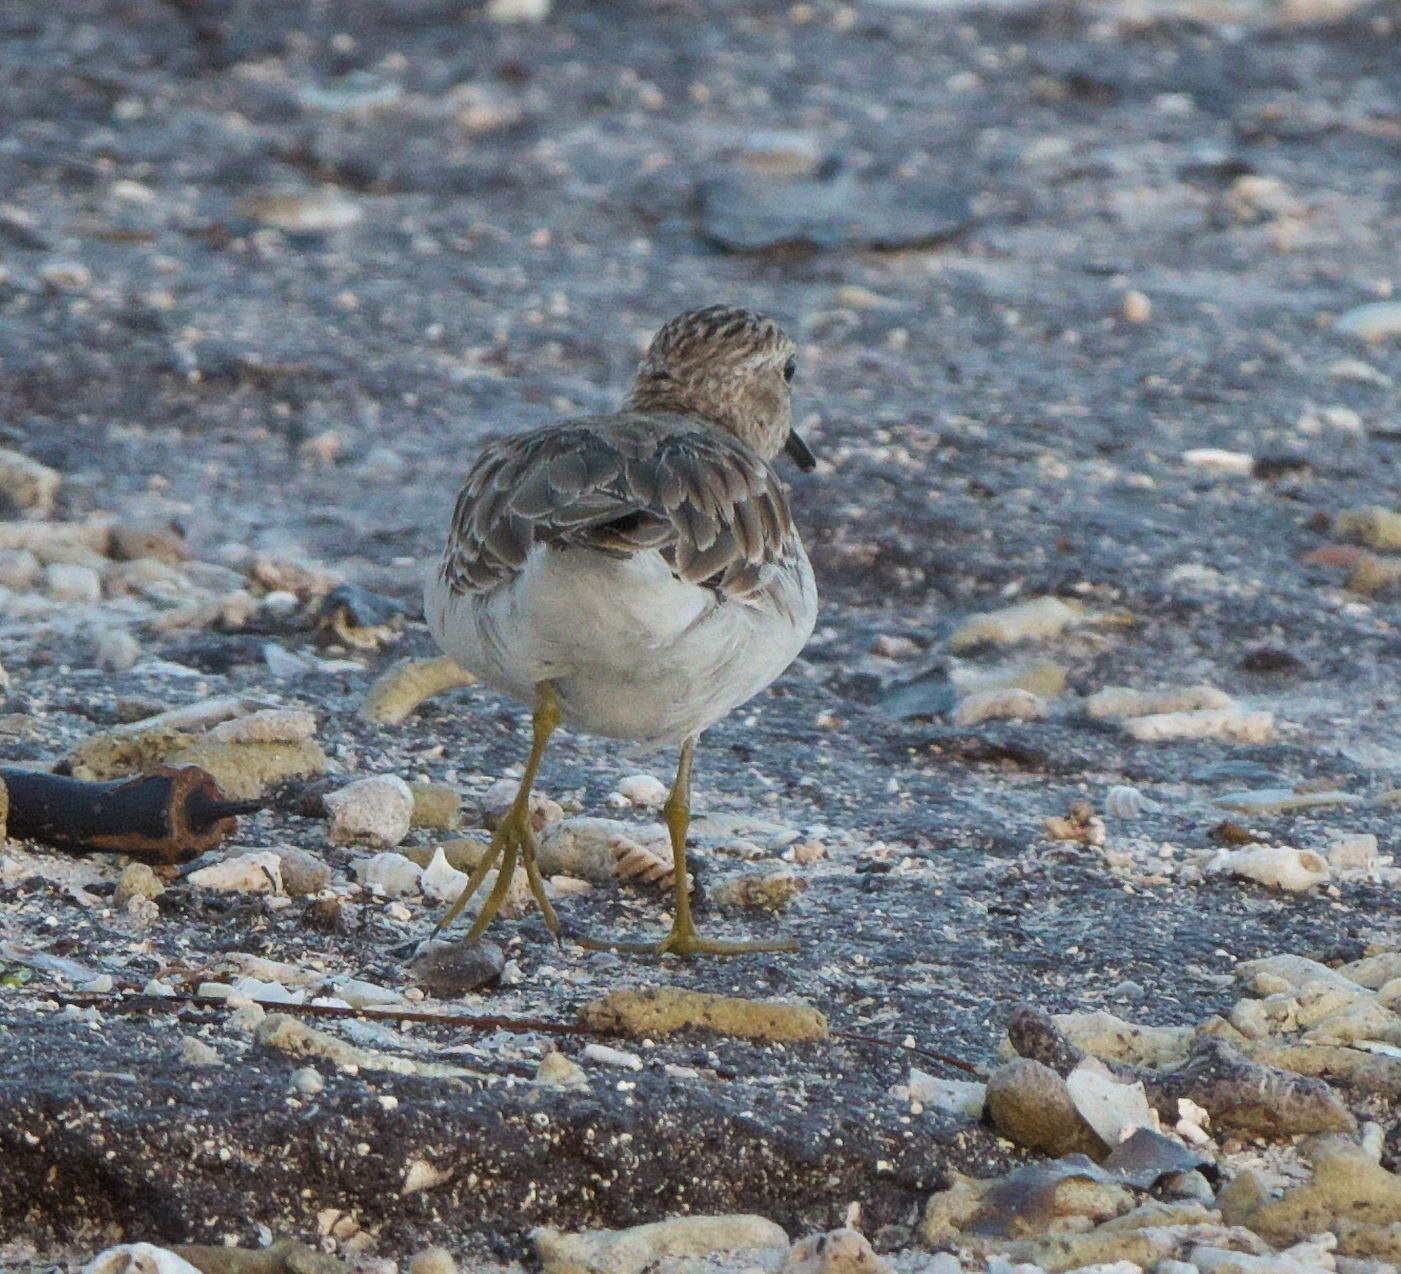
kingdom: Animalia
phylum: Chordata
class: Aves
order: Charadriiformes
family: Scolopacidae
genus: Calidris
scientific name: Calidris minutilla
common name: Least sandpiper
